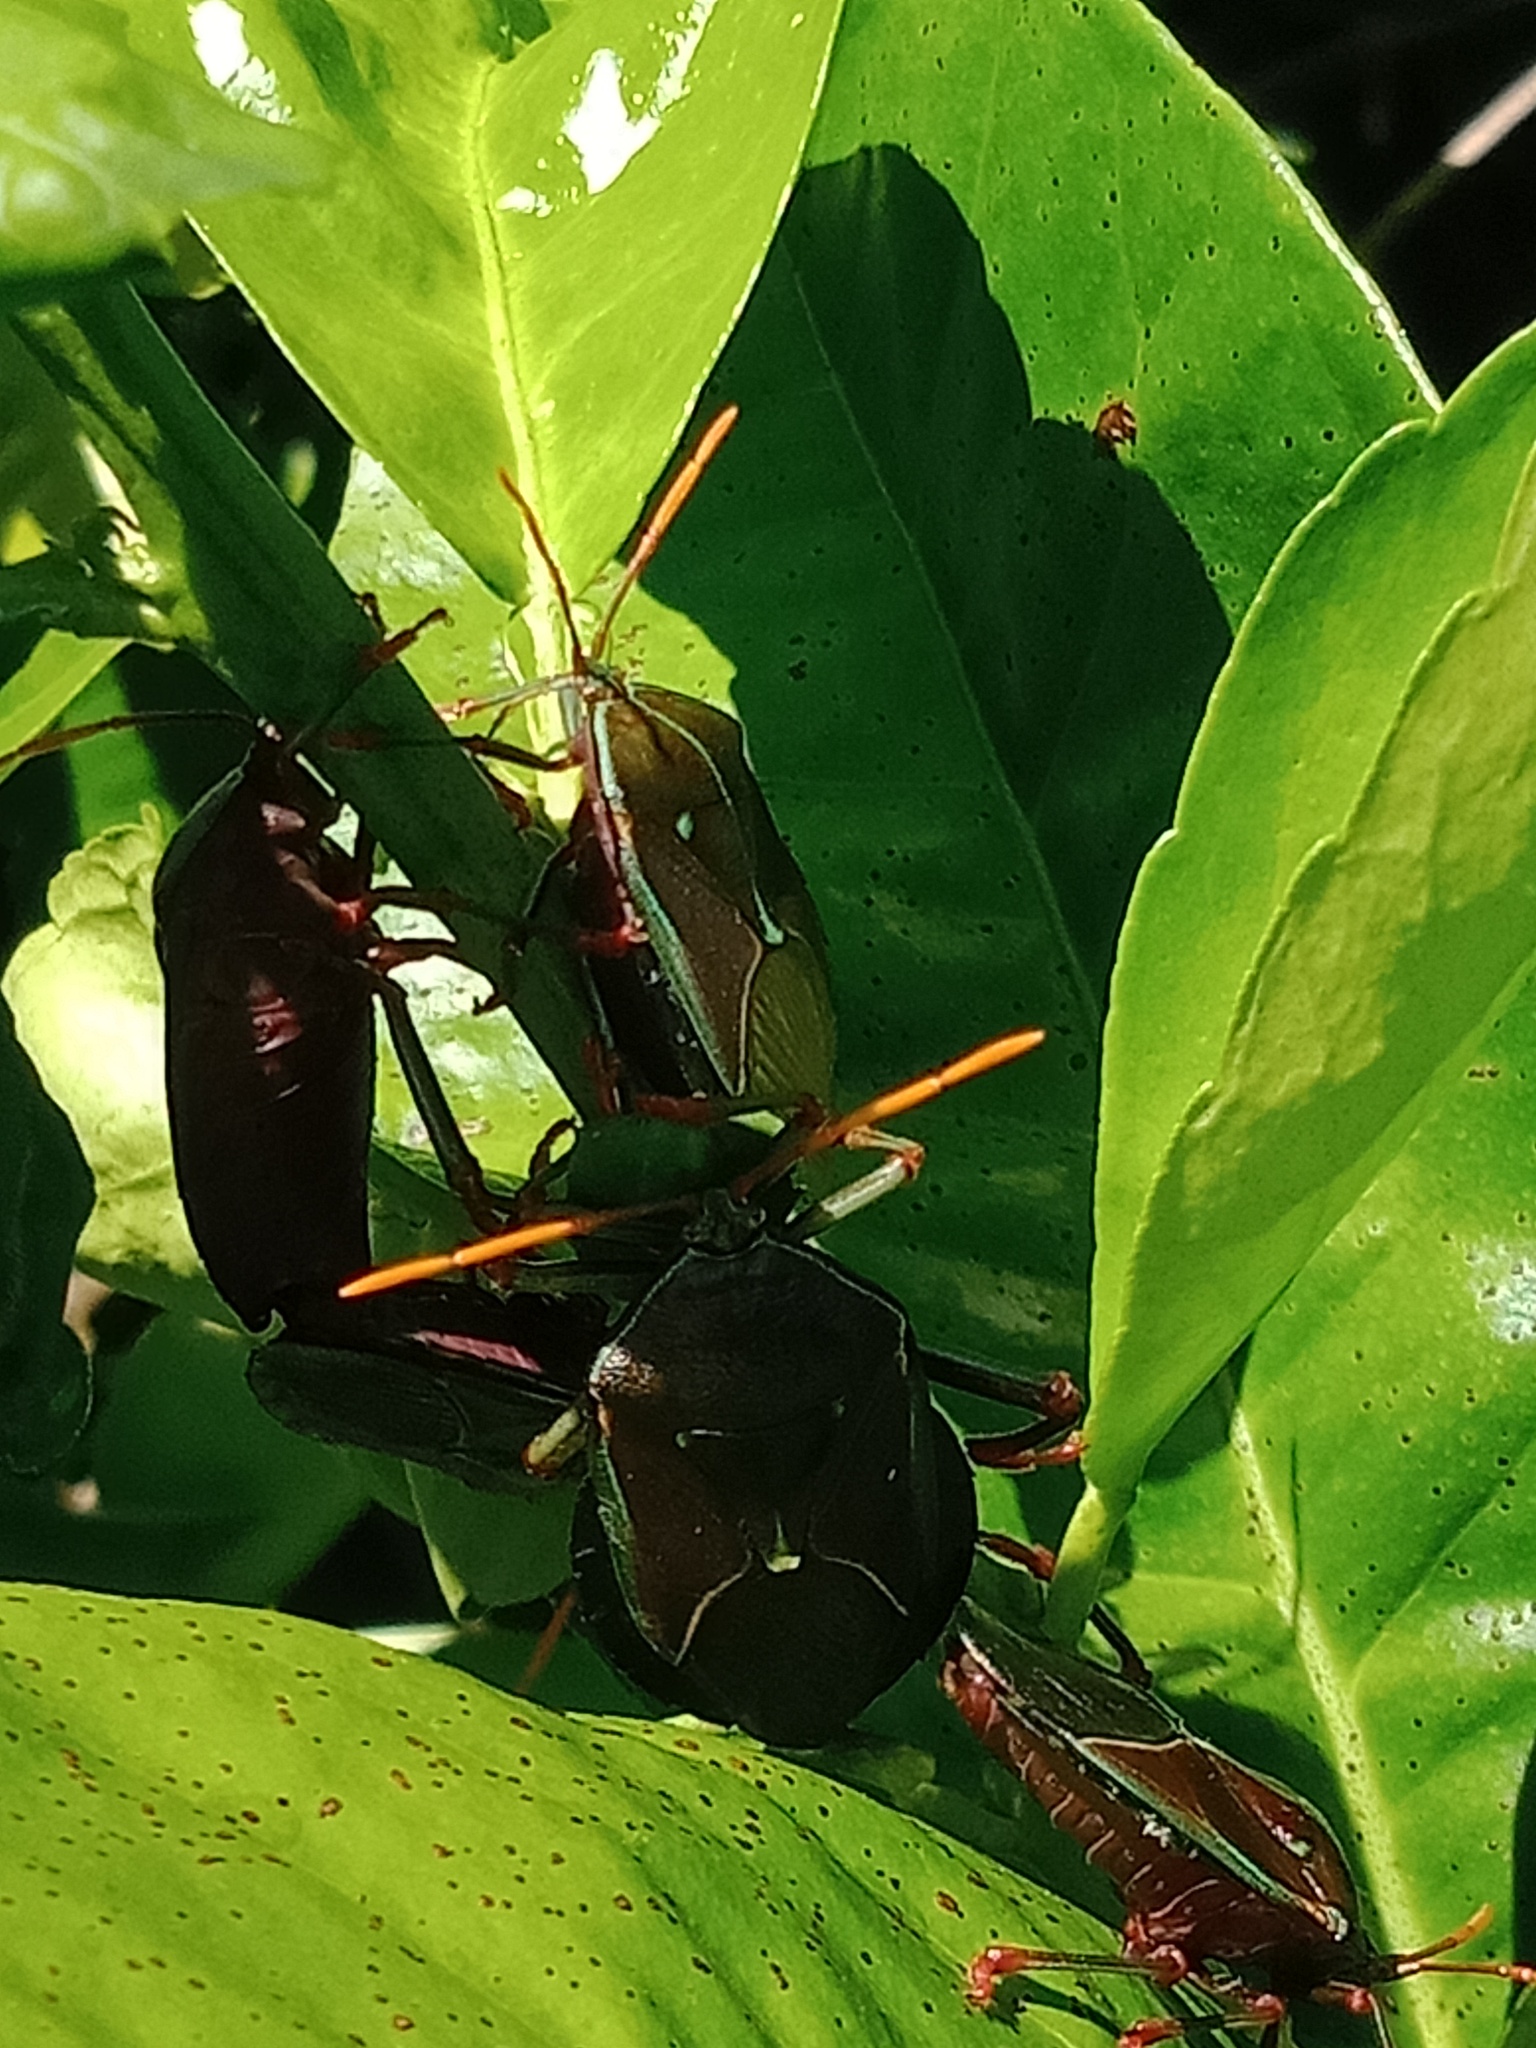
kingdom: Animalia
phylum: Arthropoda
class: Insecta
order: Hemiptera
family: Tessaratomidae
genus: Musgraveia
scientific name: Musgraveia sulciventris
